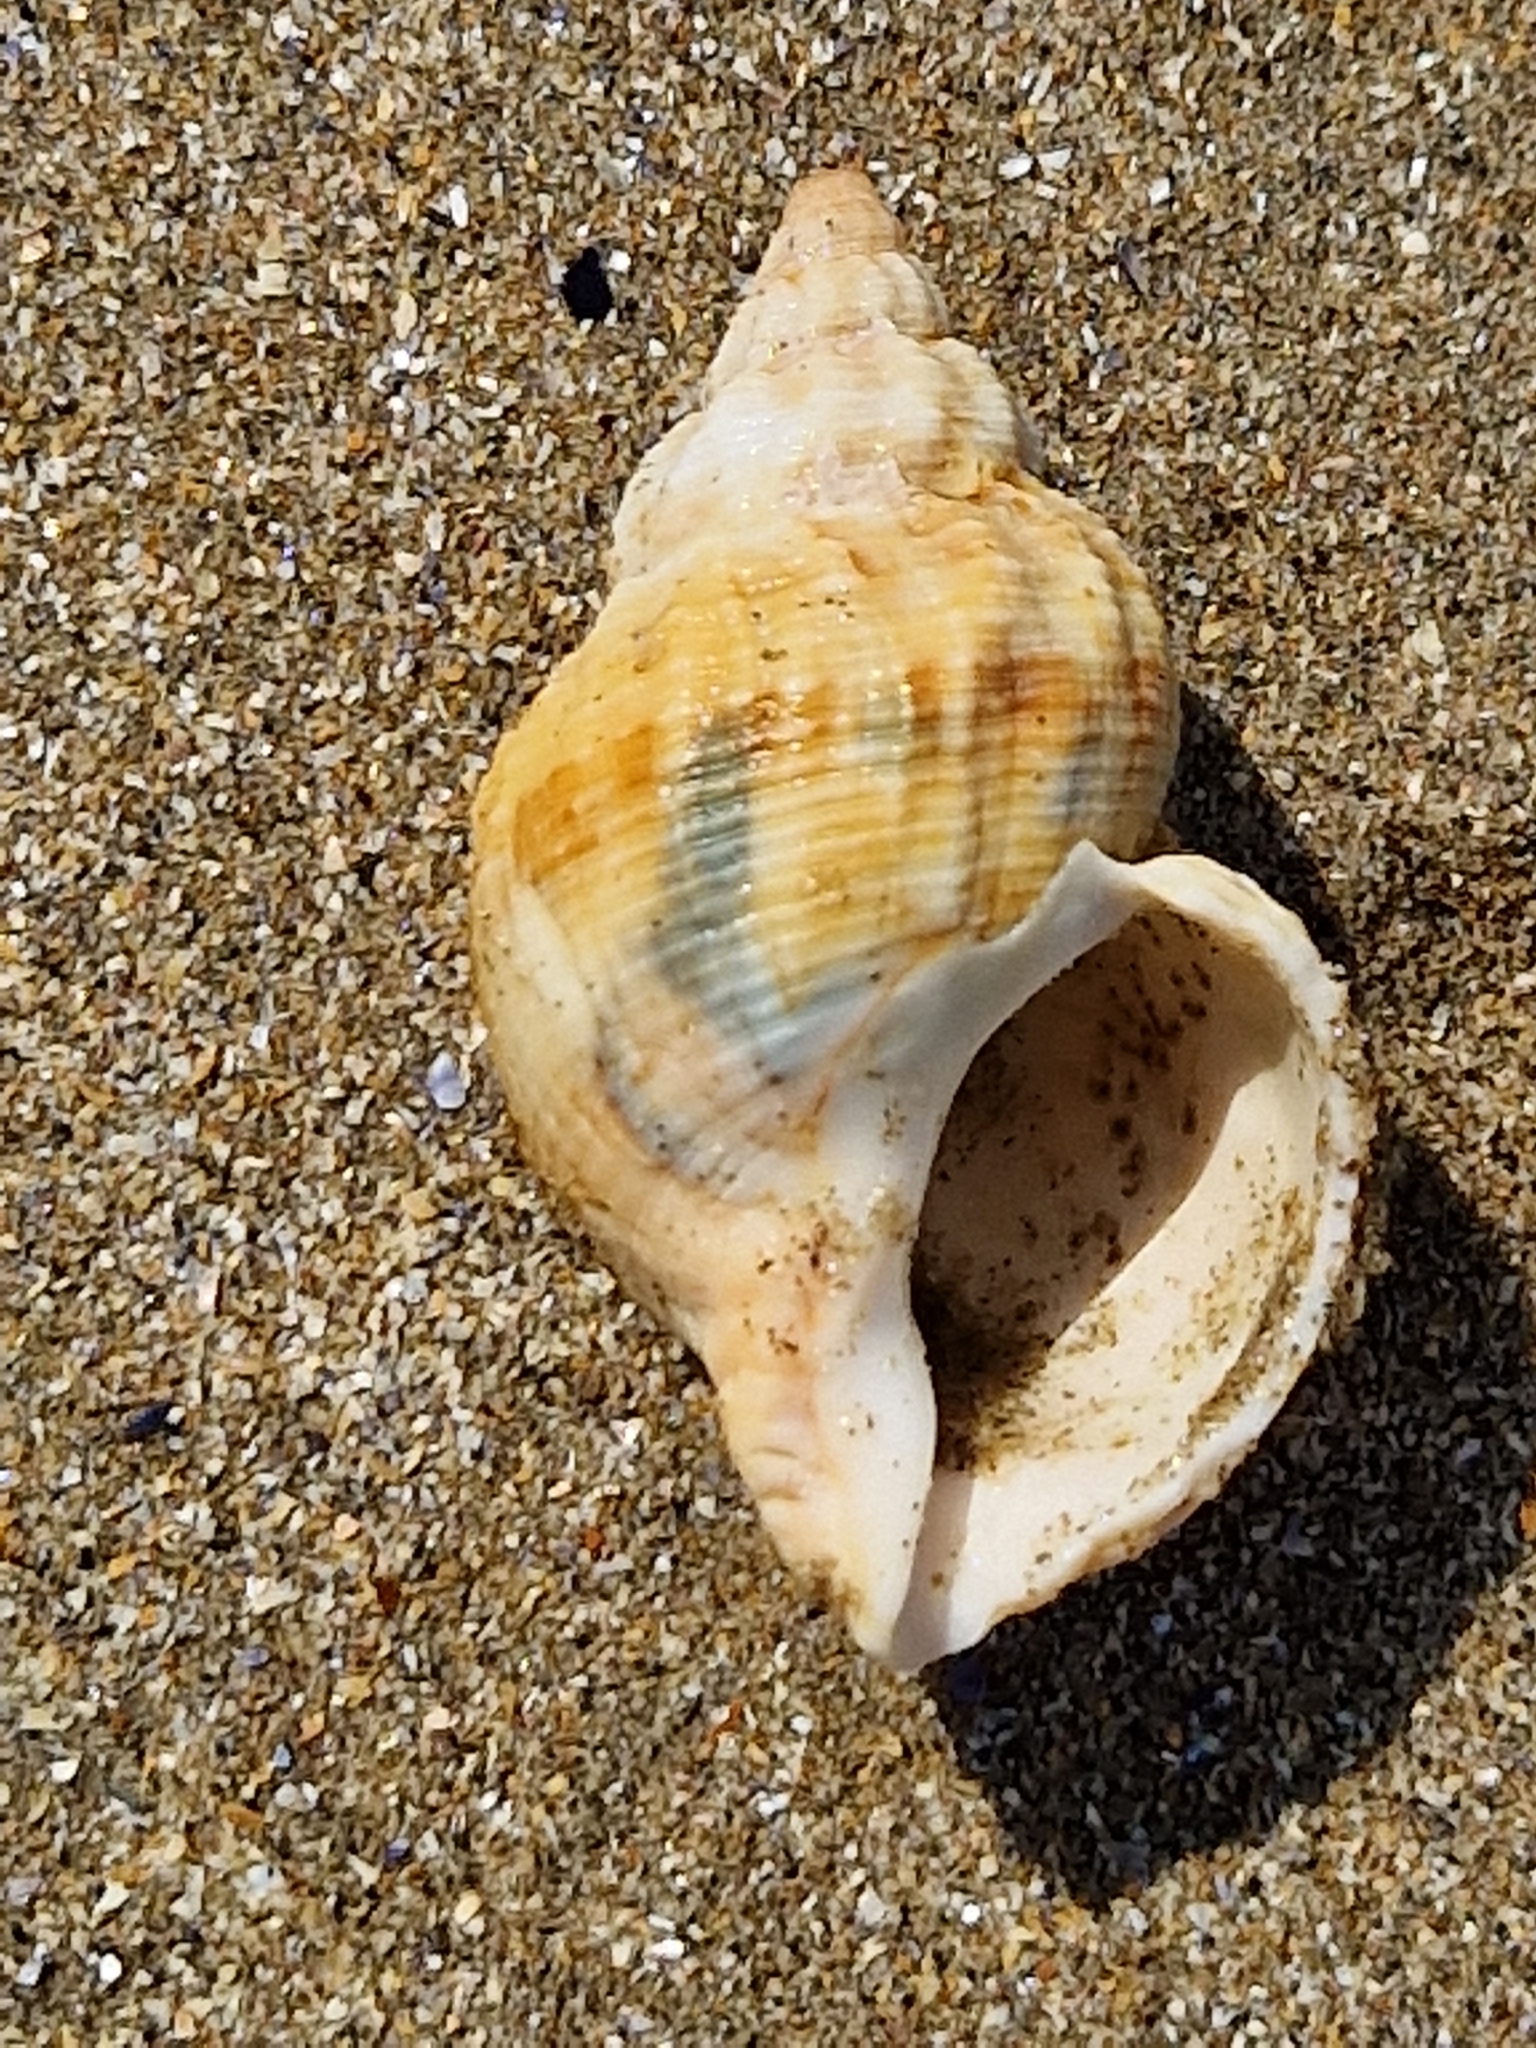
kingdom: Animalia
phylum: Mollusca
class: Gastropoda
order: Neogastropoda
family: Buccinidae
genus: Buccinum
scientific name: Buccinum undatum
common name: Common whelk
